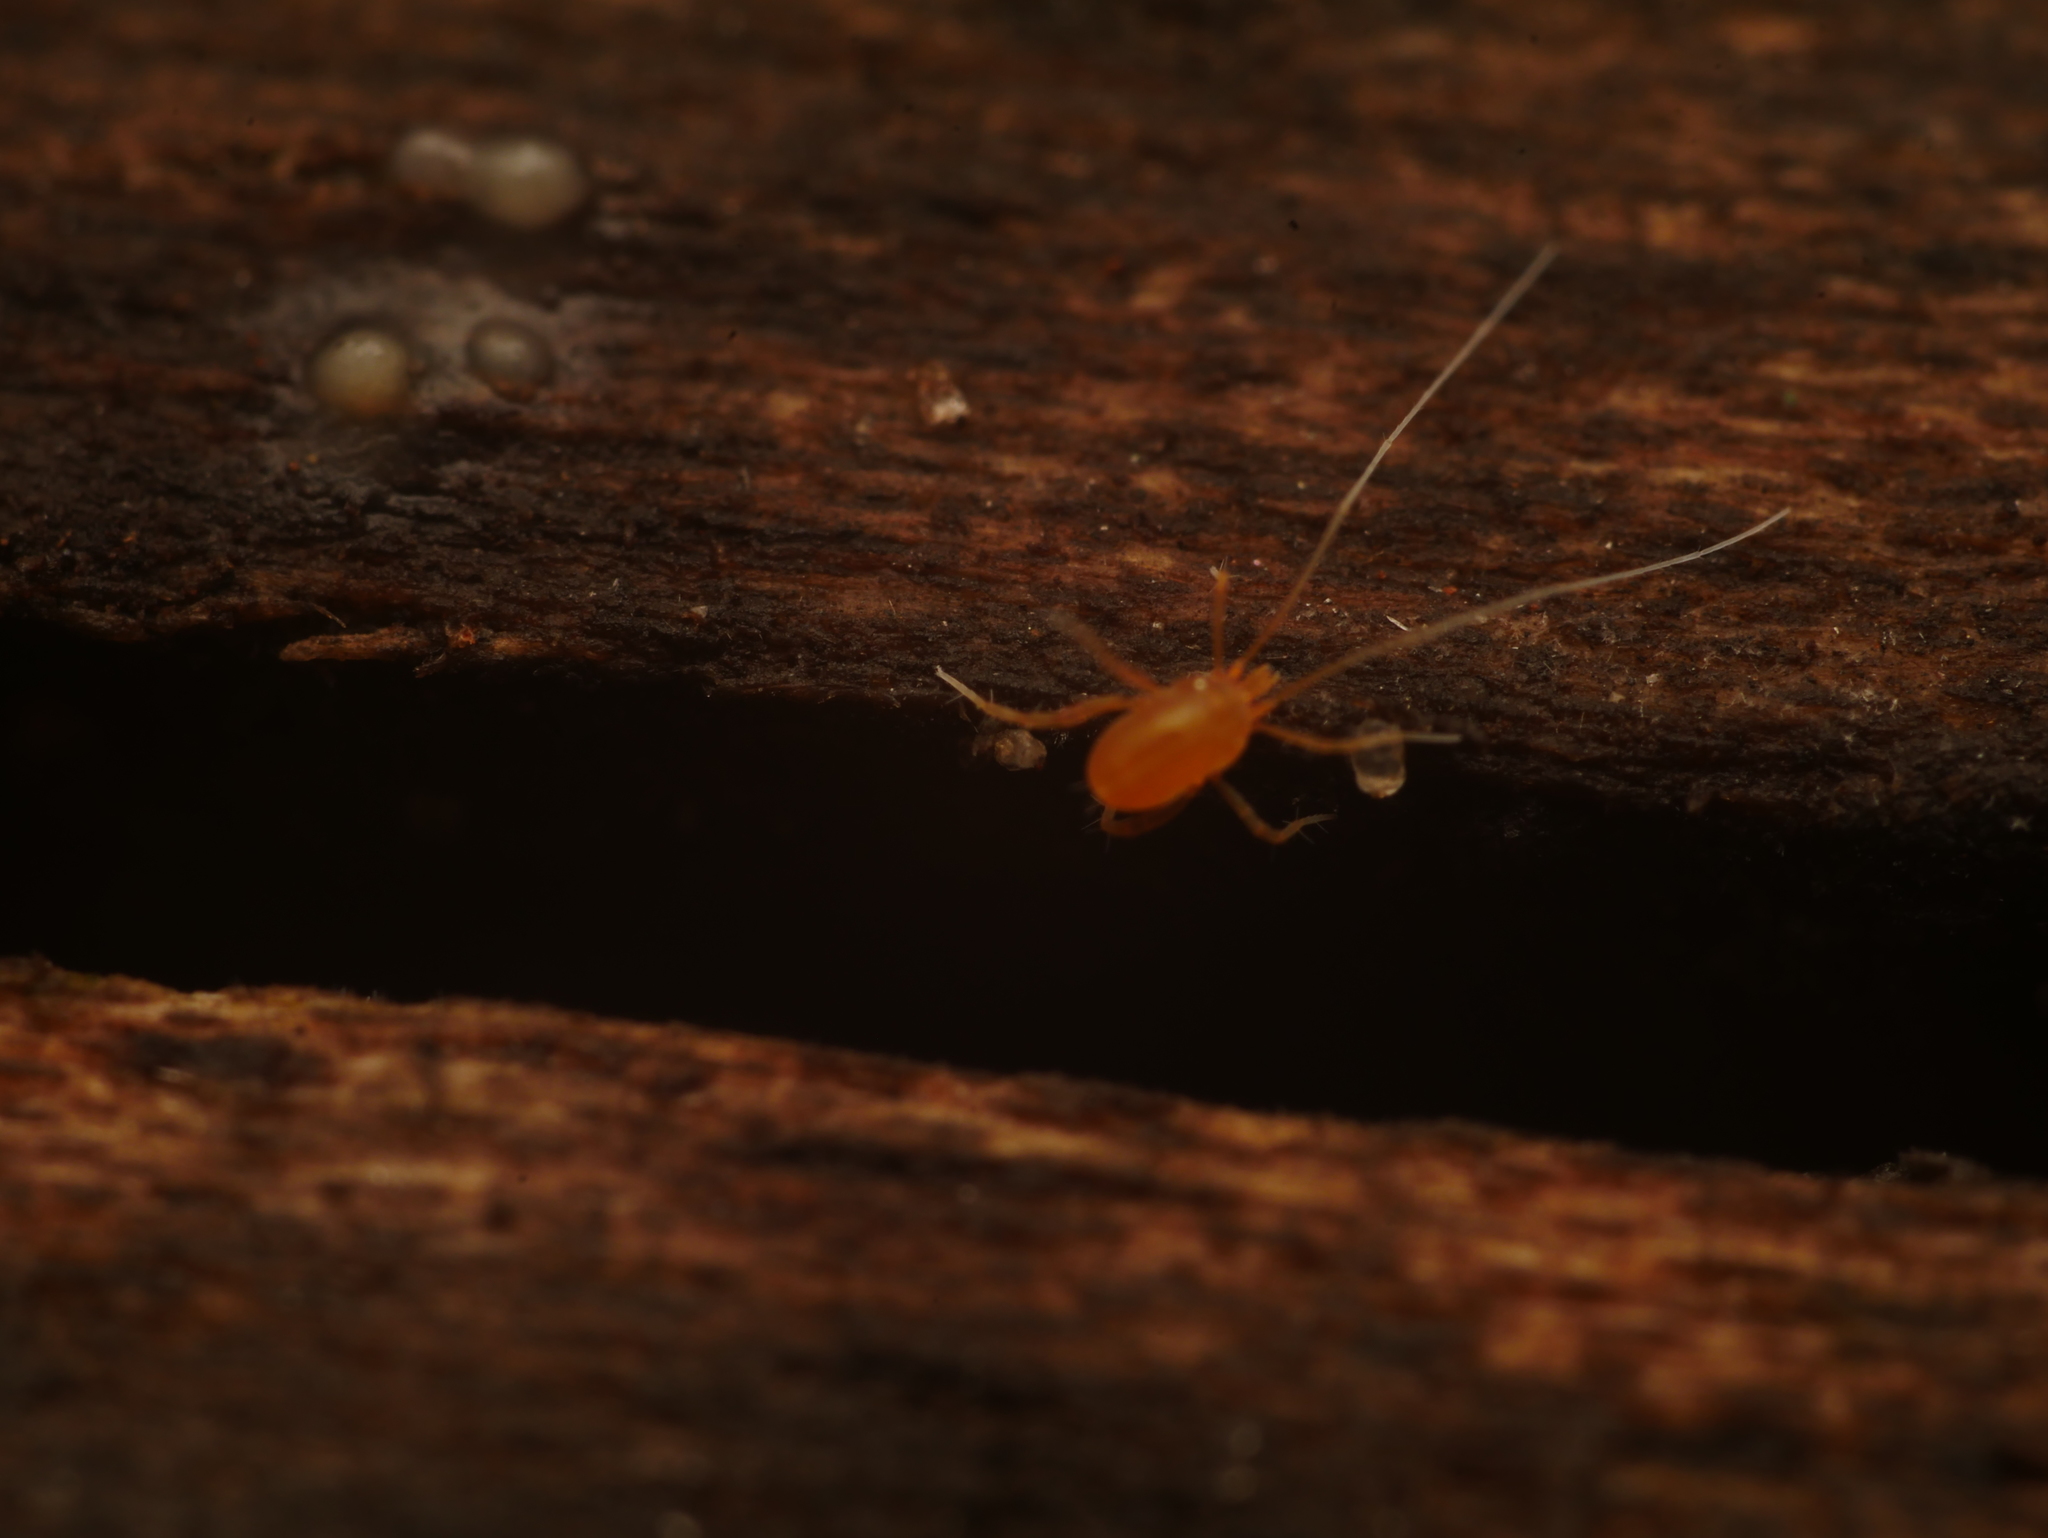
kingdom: Animalia
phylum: Arthropoda
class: Arachnida
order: Trombidiformes
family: Eupodidae
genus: Linopodes
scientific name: Linopodes
